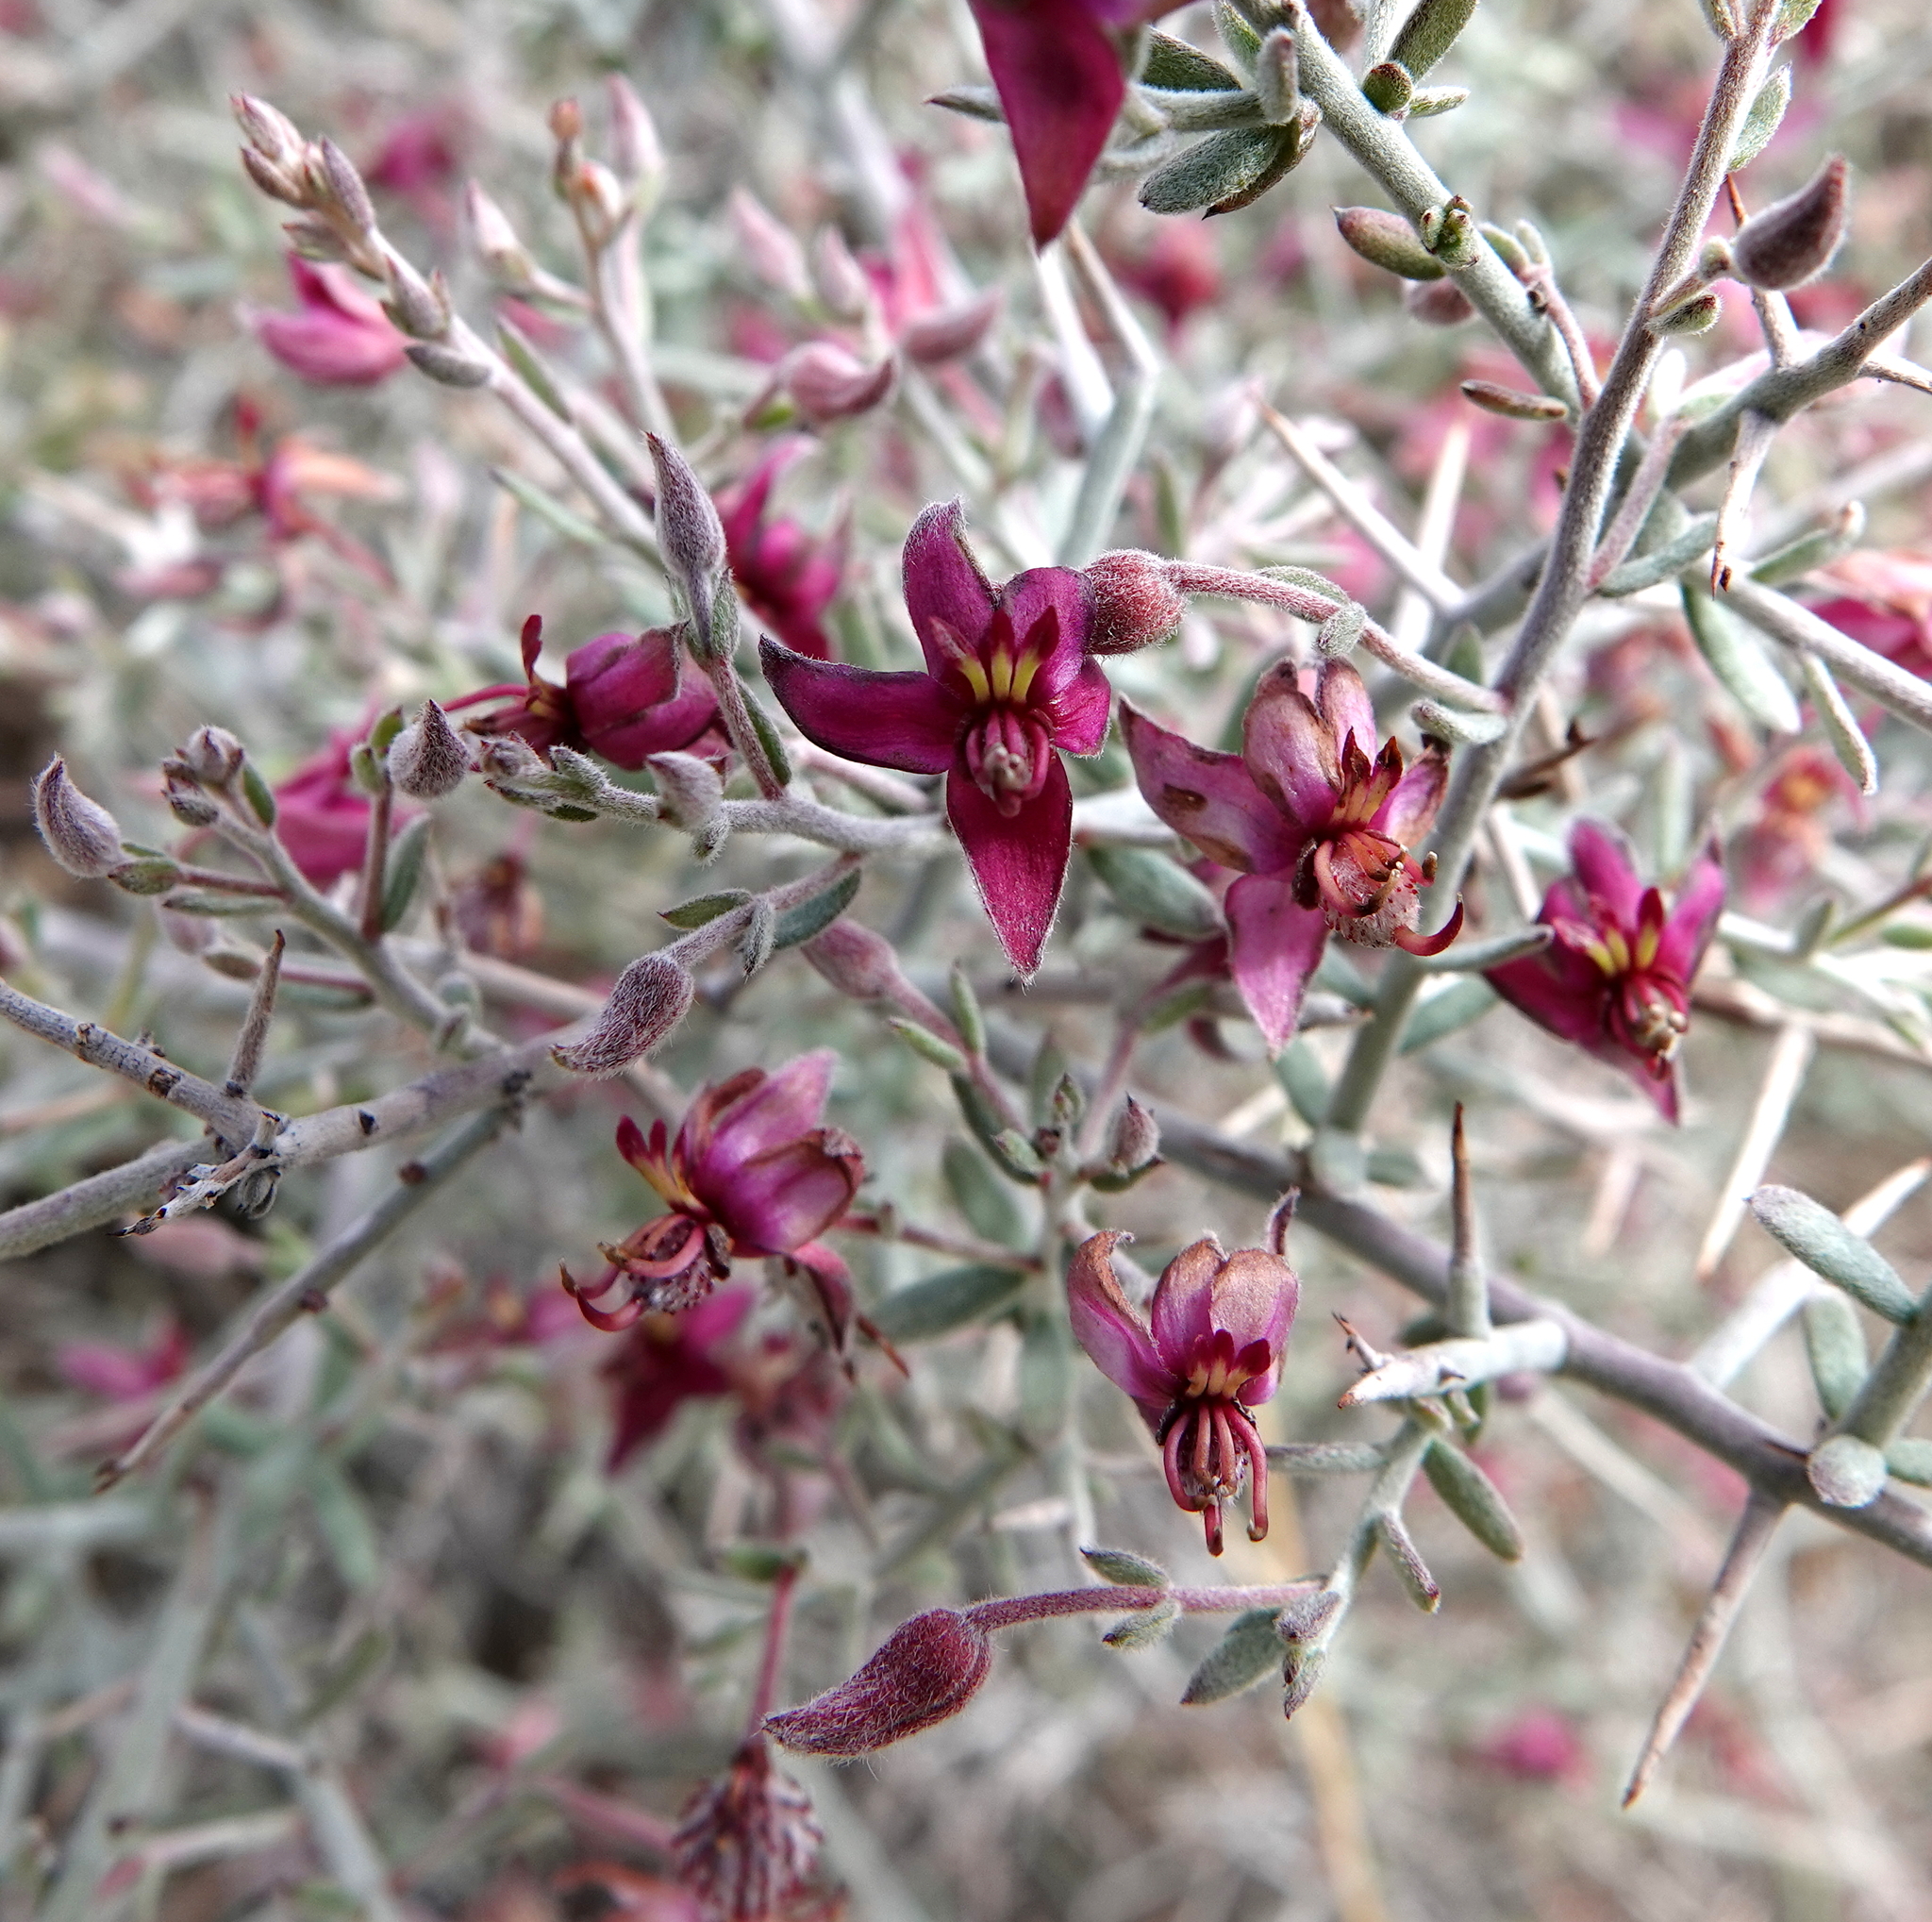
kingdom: Plantae
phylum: Tracheophyta
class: Magnoliopsida
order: Zygophyllales
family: Krameriaceae
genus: Krameria
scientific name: Krameria bicolor
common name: White ratany
